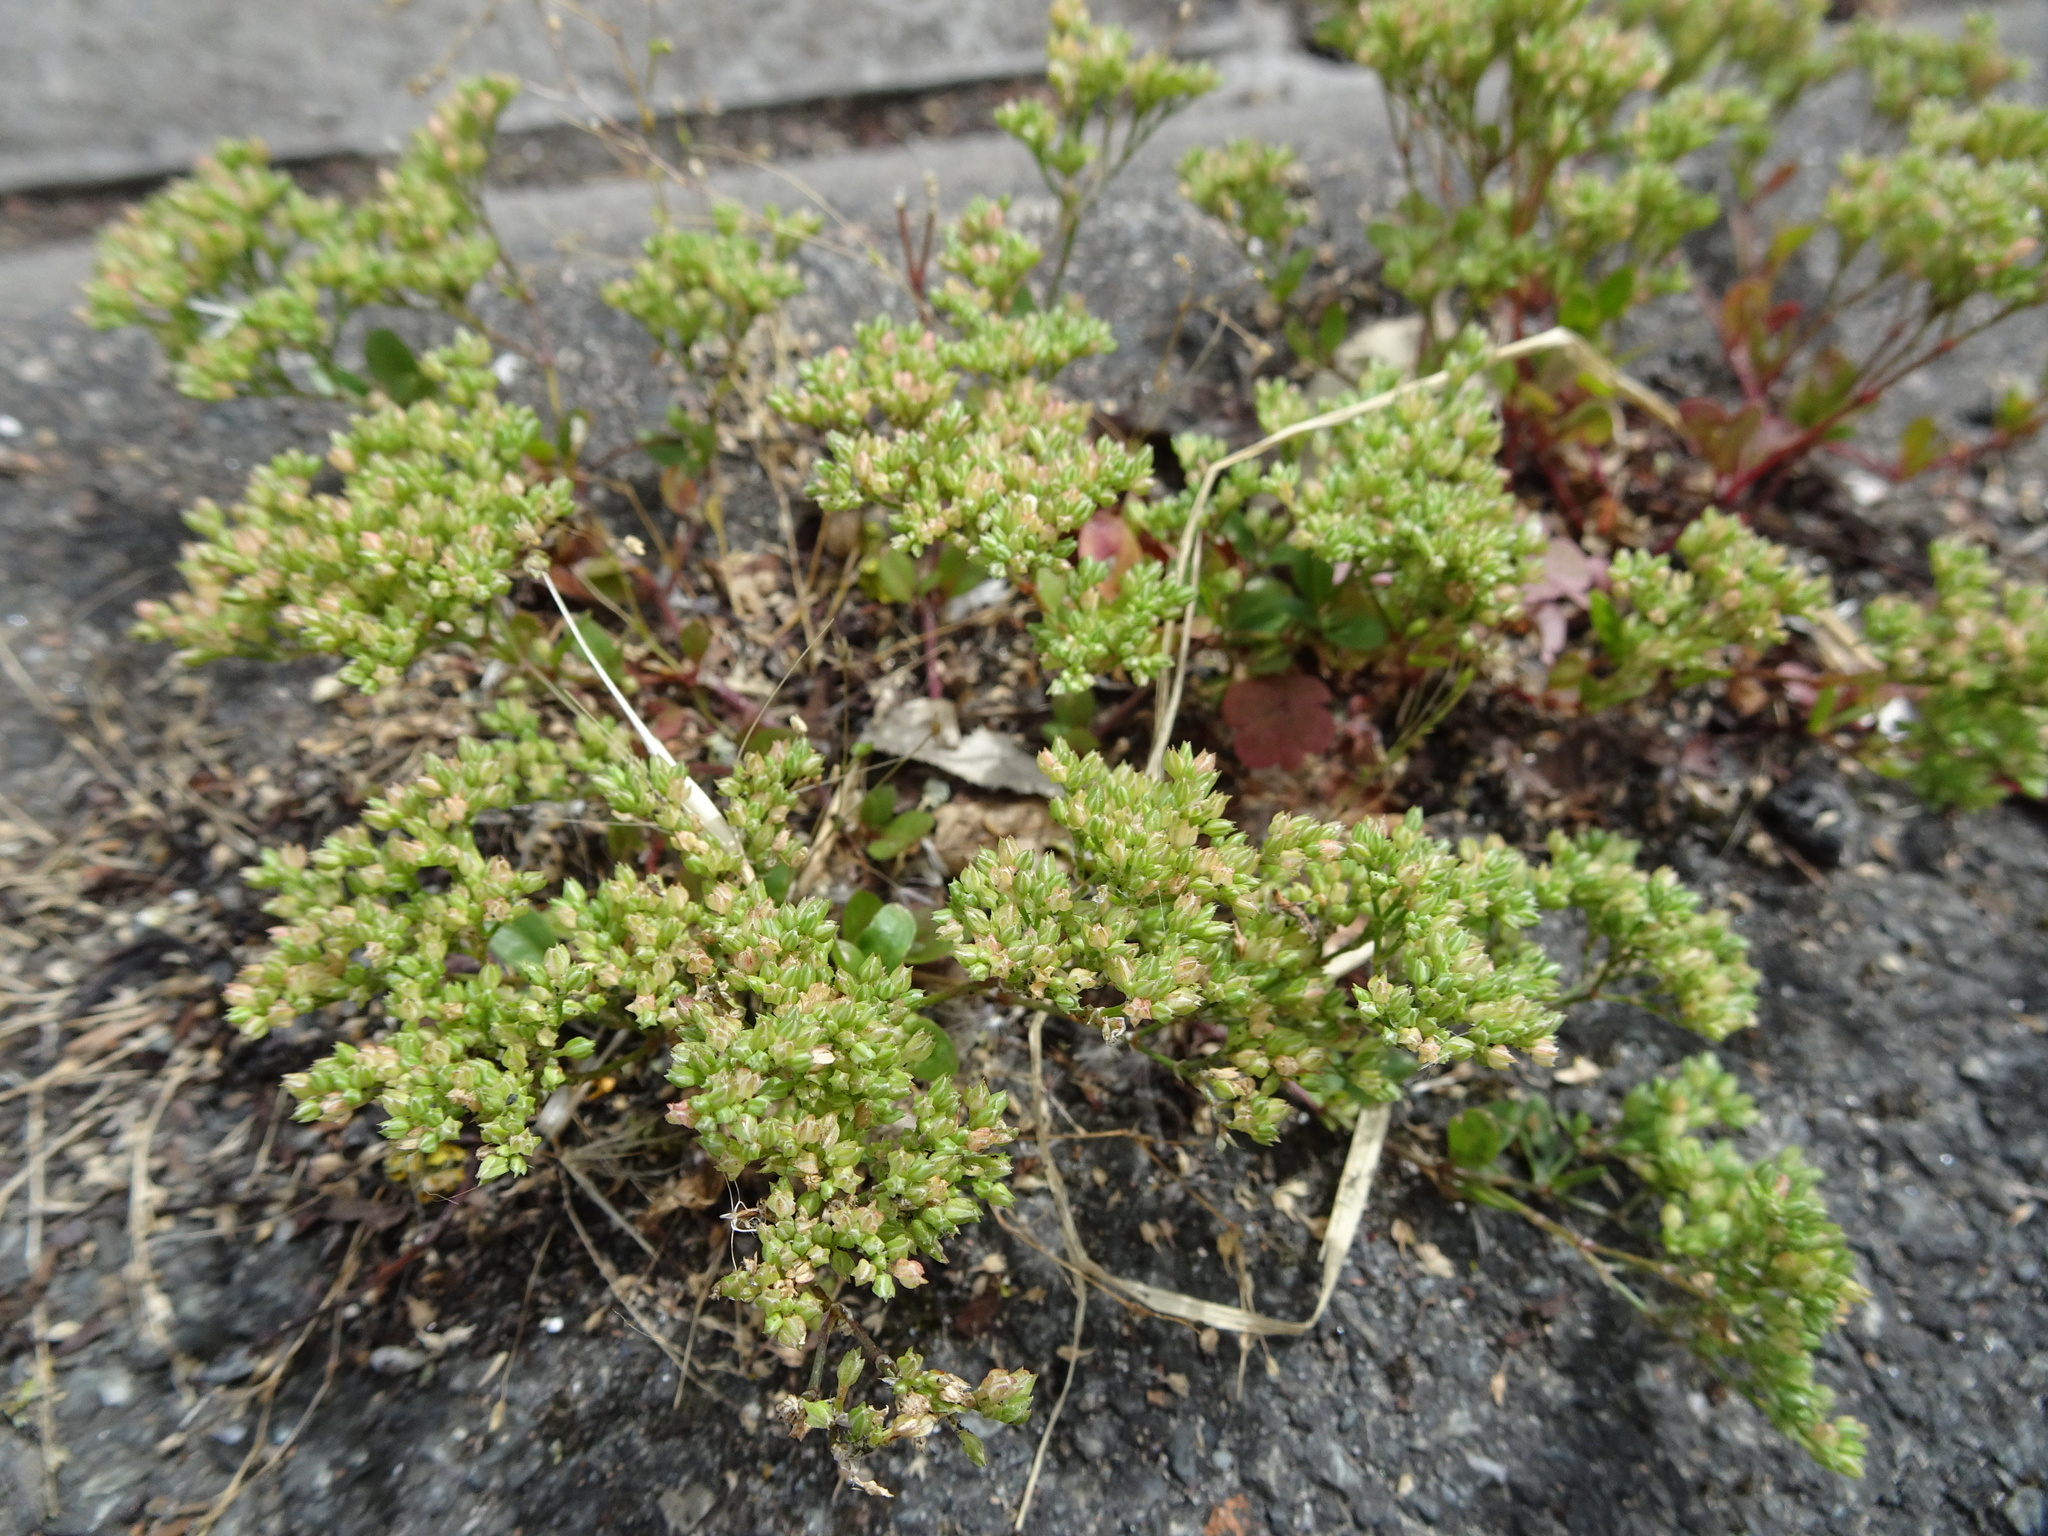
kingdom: Plantae
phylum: Tracheophyta
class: Magnoliopsida
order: Caryophyllales
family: Caryophyllaceae
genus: Polycarpon
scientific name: Polycarpon tetraphyllum
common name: Four-leaved all-seed
